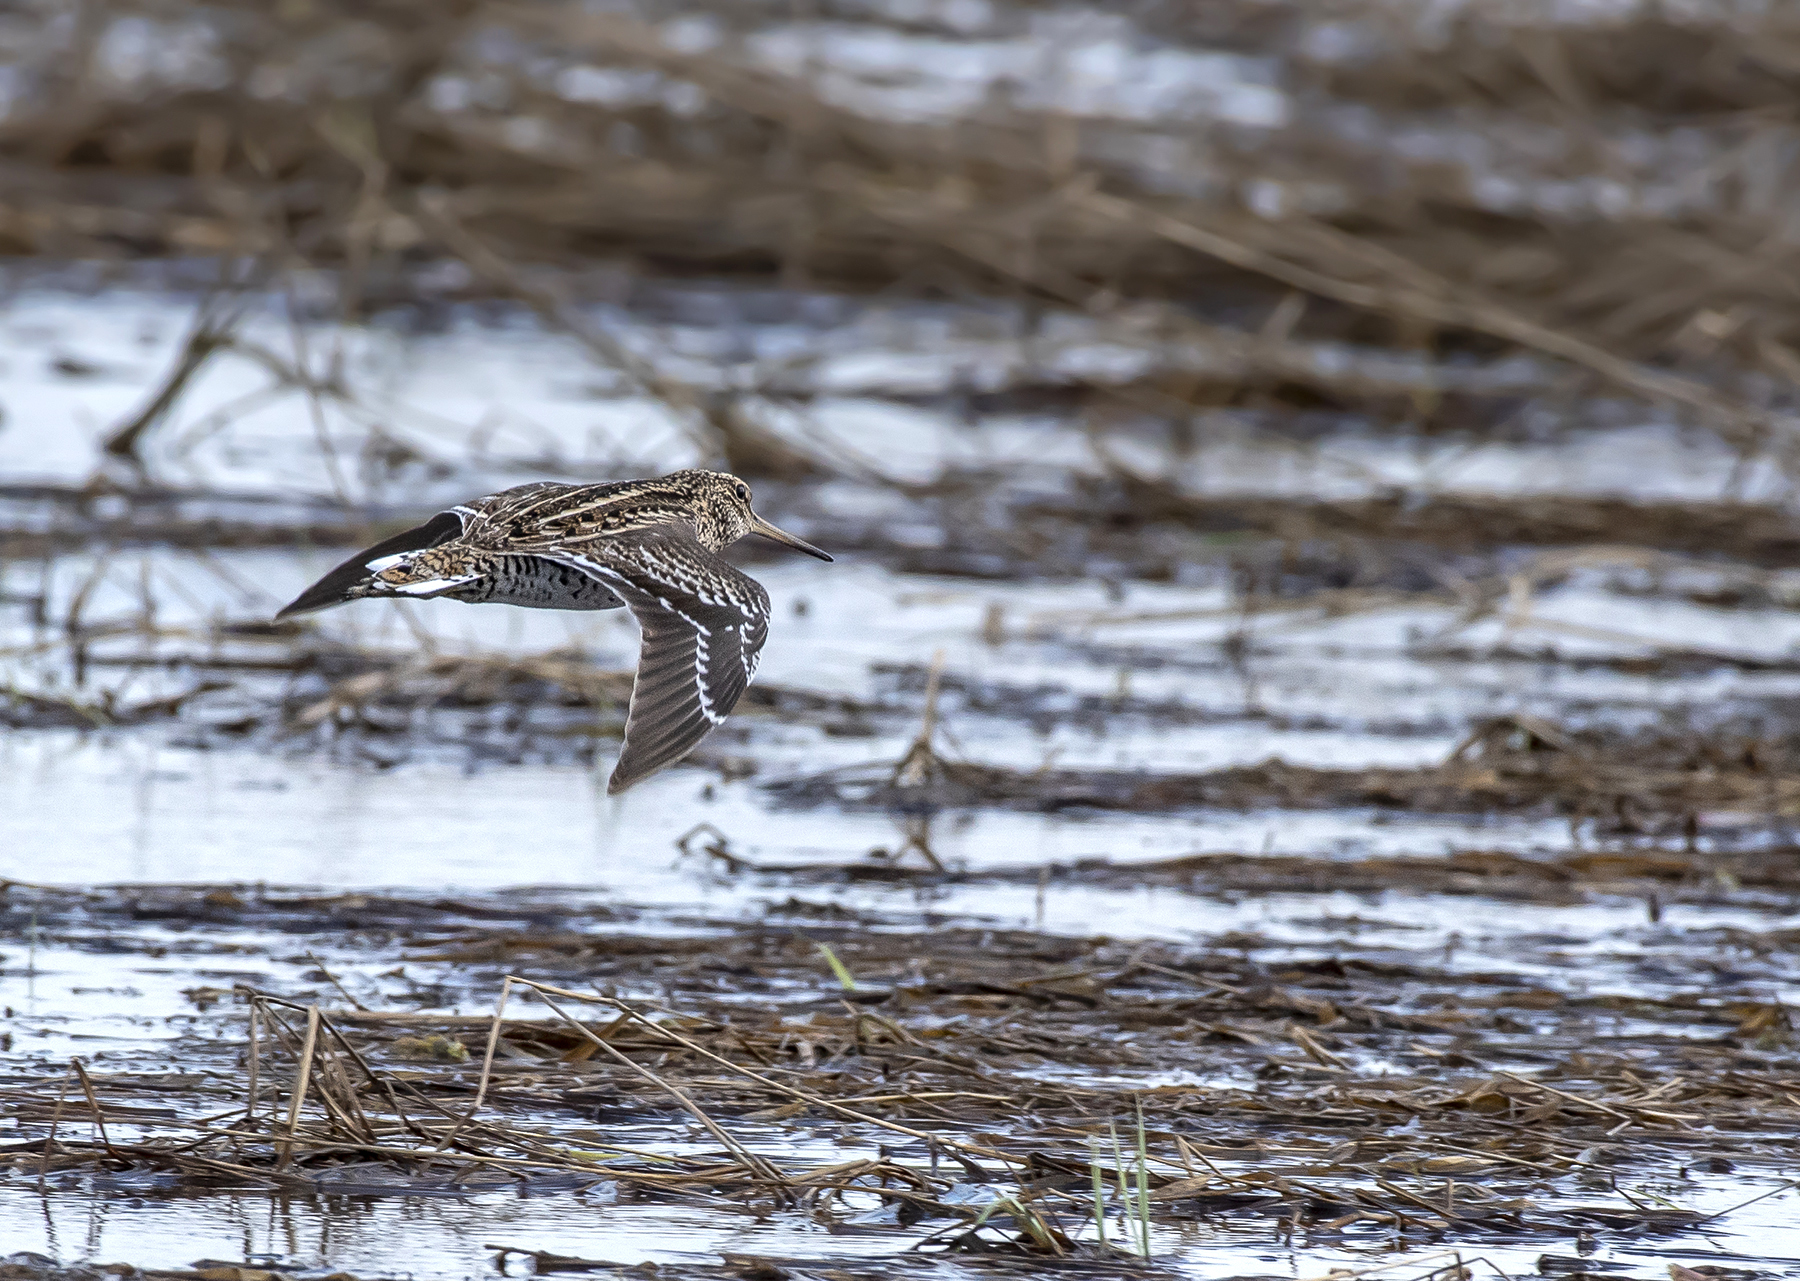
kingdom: Animalia
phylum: Chordata
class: Aves
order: Charadriiformes
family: Scolopacidae
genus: Gallinago
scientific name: Gallinago media
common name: Great snipe
